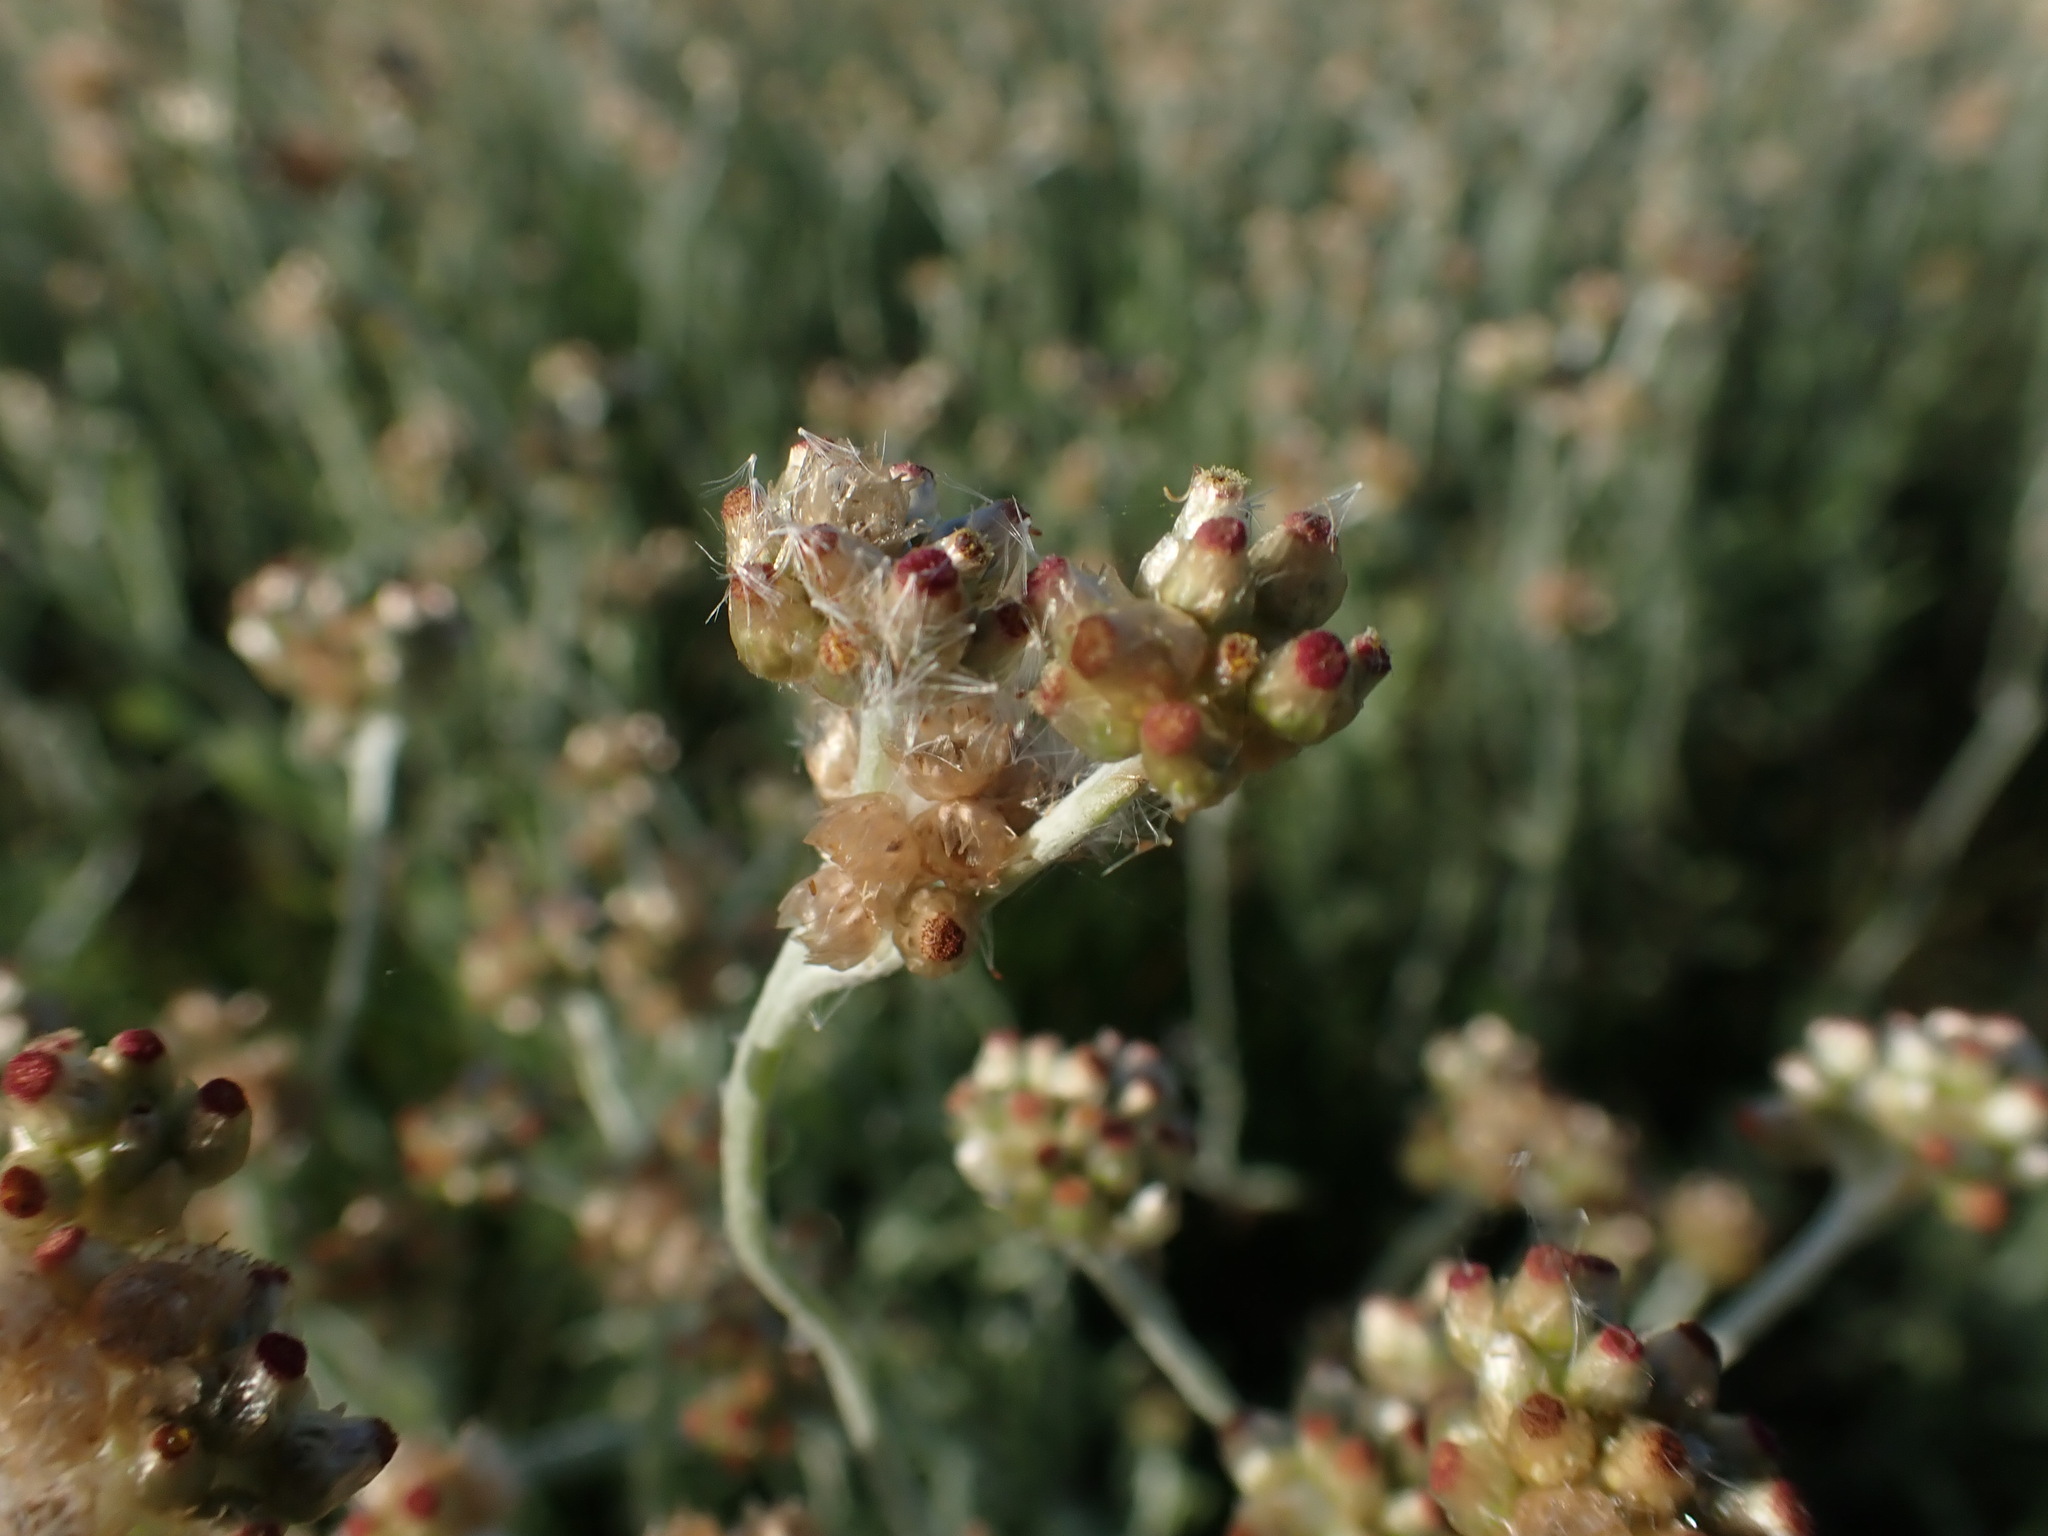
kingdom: Plantae
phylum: Tracheophyta
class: Magnoliopsida
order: Asterales
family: Asteraceae
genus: Helichrysum
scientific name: Helichrysum luteoalbum
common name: Daisy
